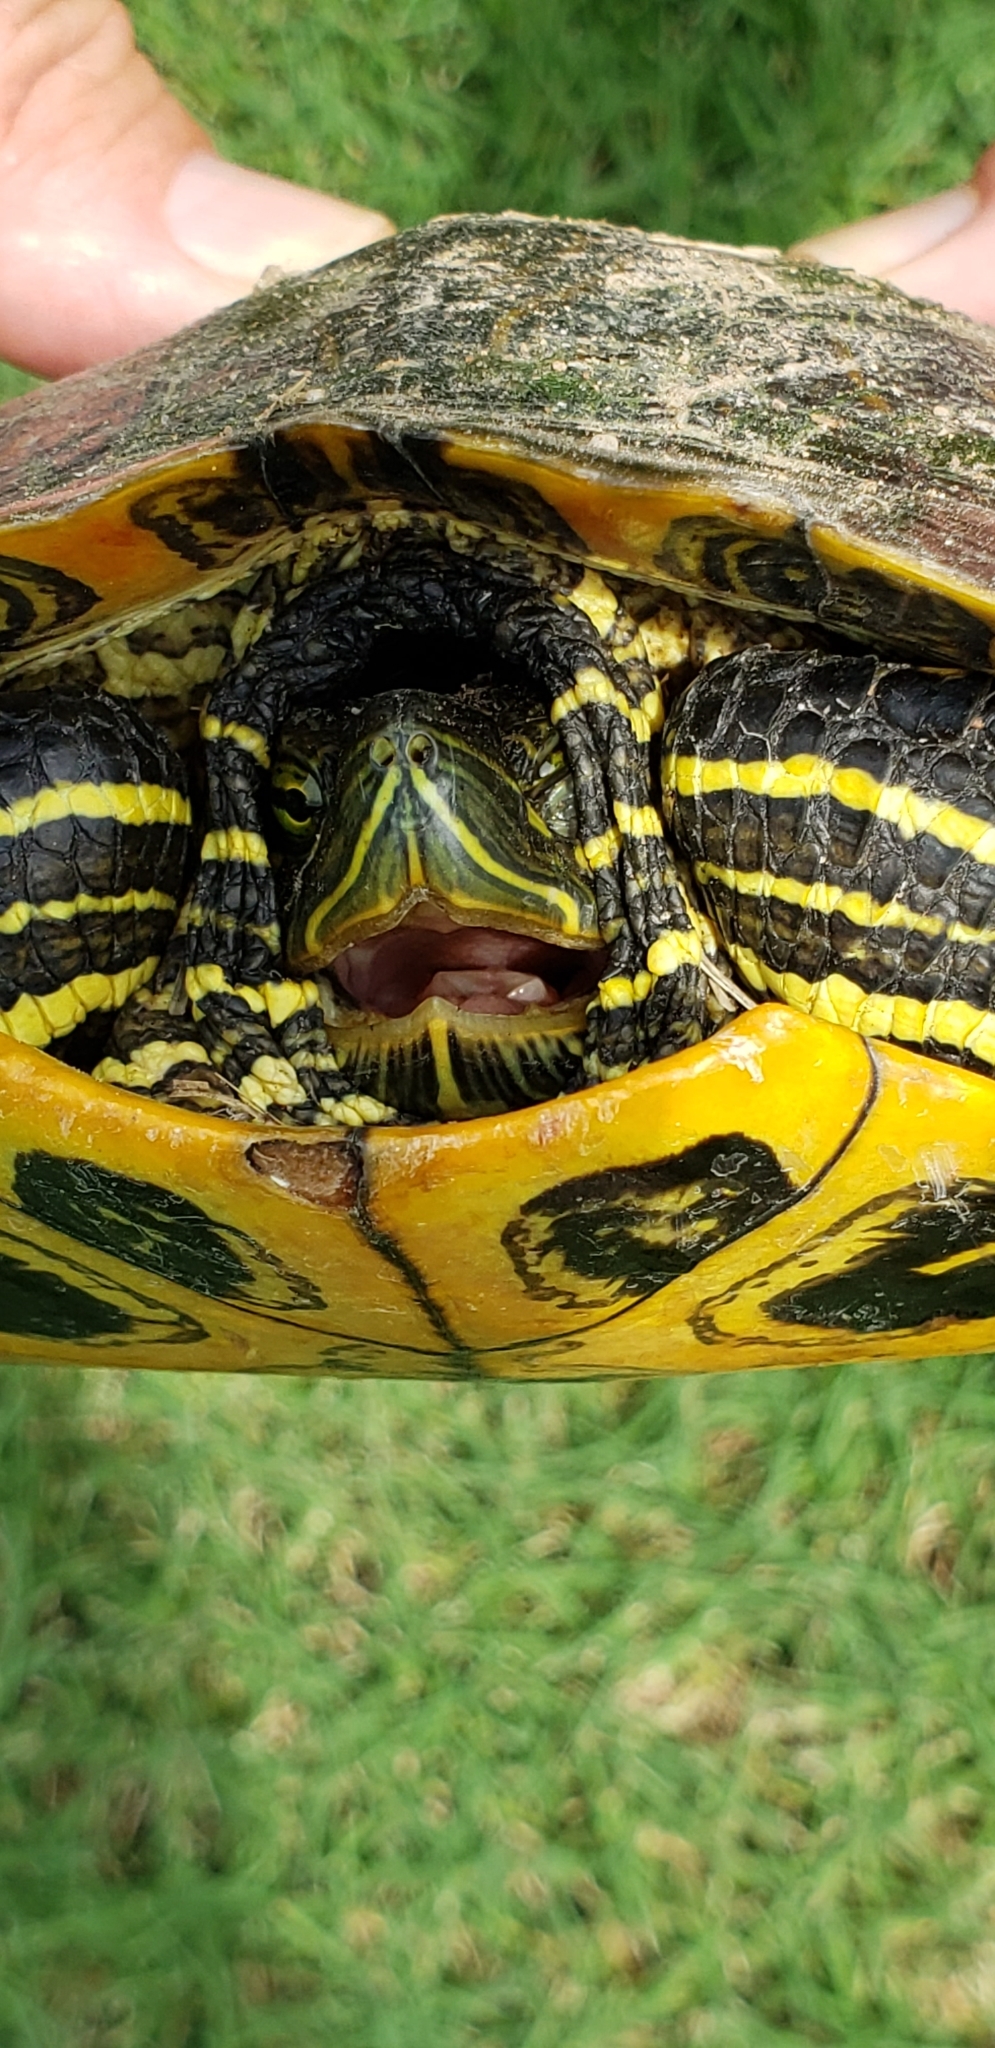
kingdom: Animalia
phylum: Chordata
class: Testudines
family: Emydidae
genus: Trachemys
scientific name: Trachemys scripta
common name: Slider
